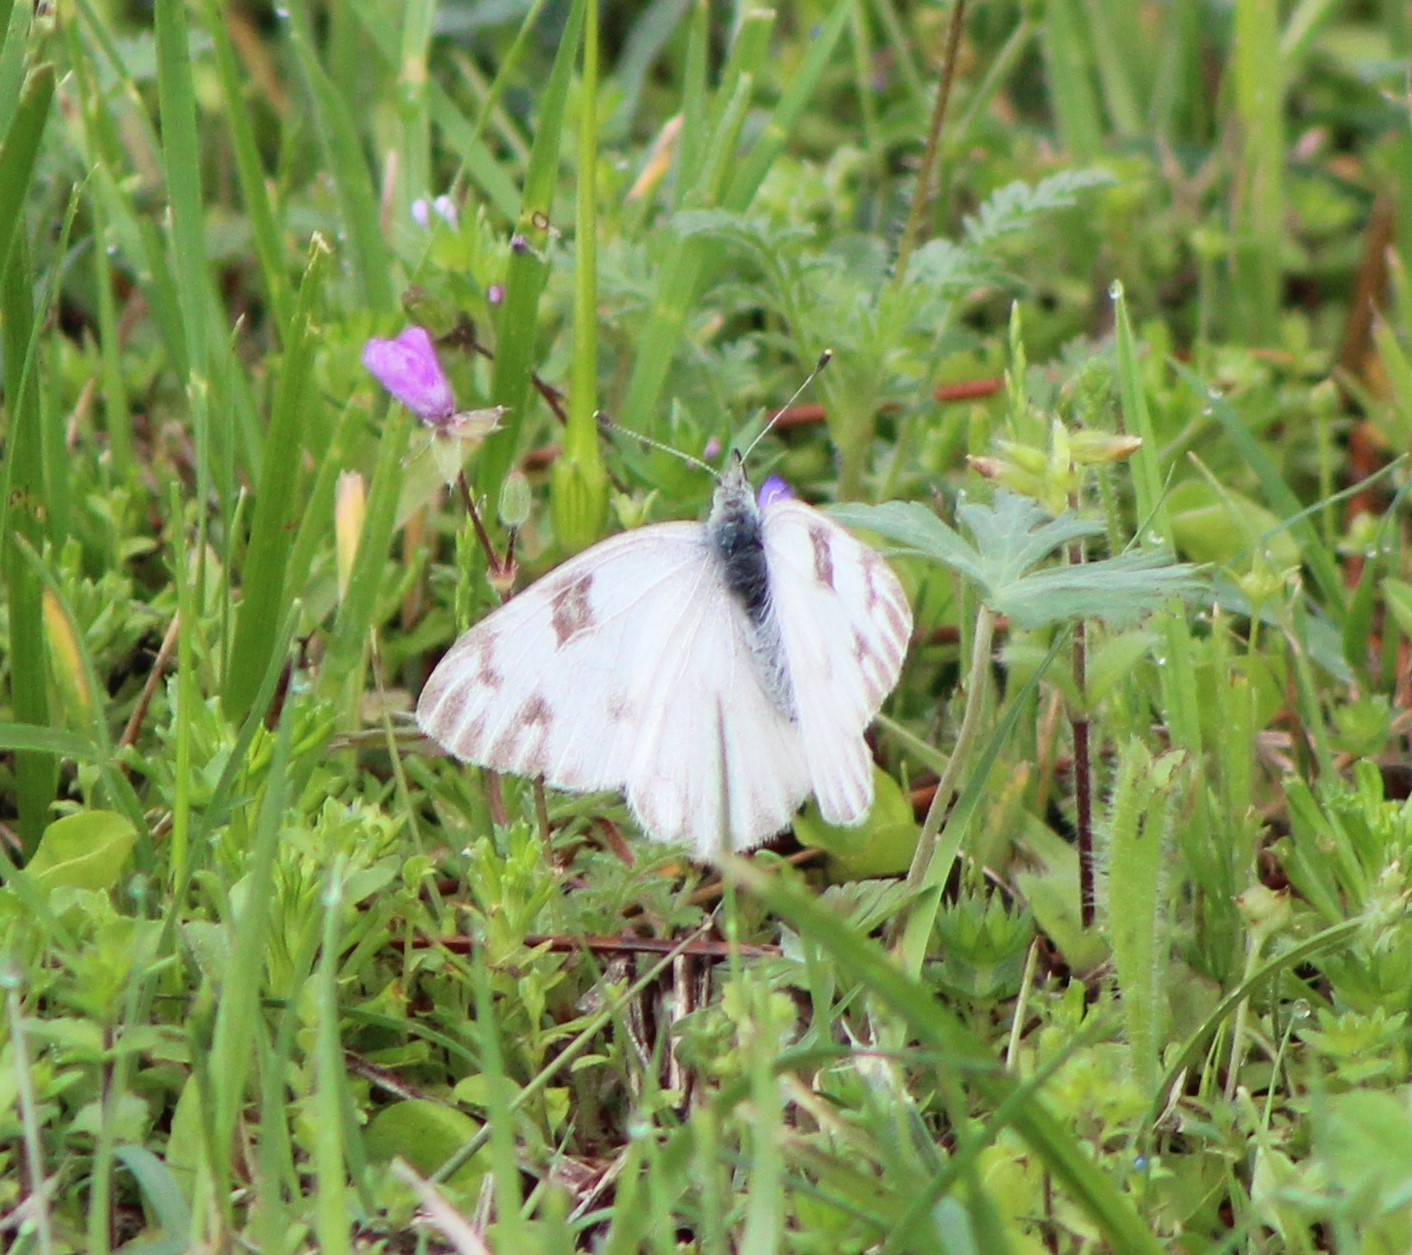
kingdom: Animalia
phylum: Arthropoda
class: Insecta
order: Lepidoptera
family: Pieridae
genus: Pontia
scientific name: Pontia protodice
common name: Checkered white
